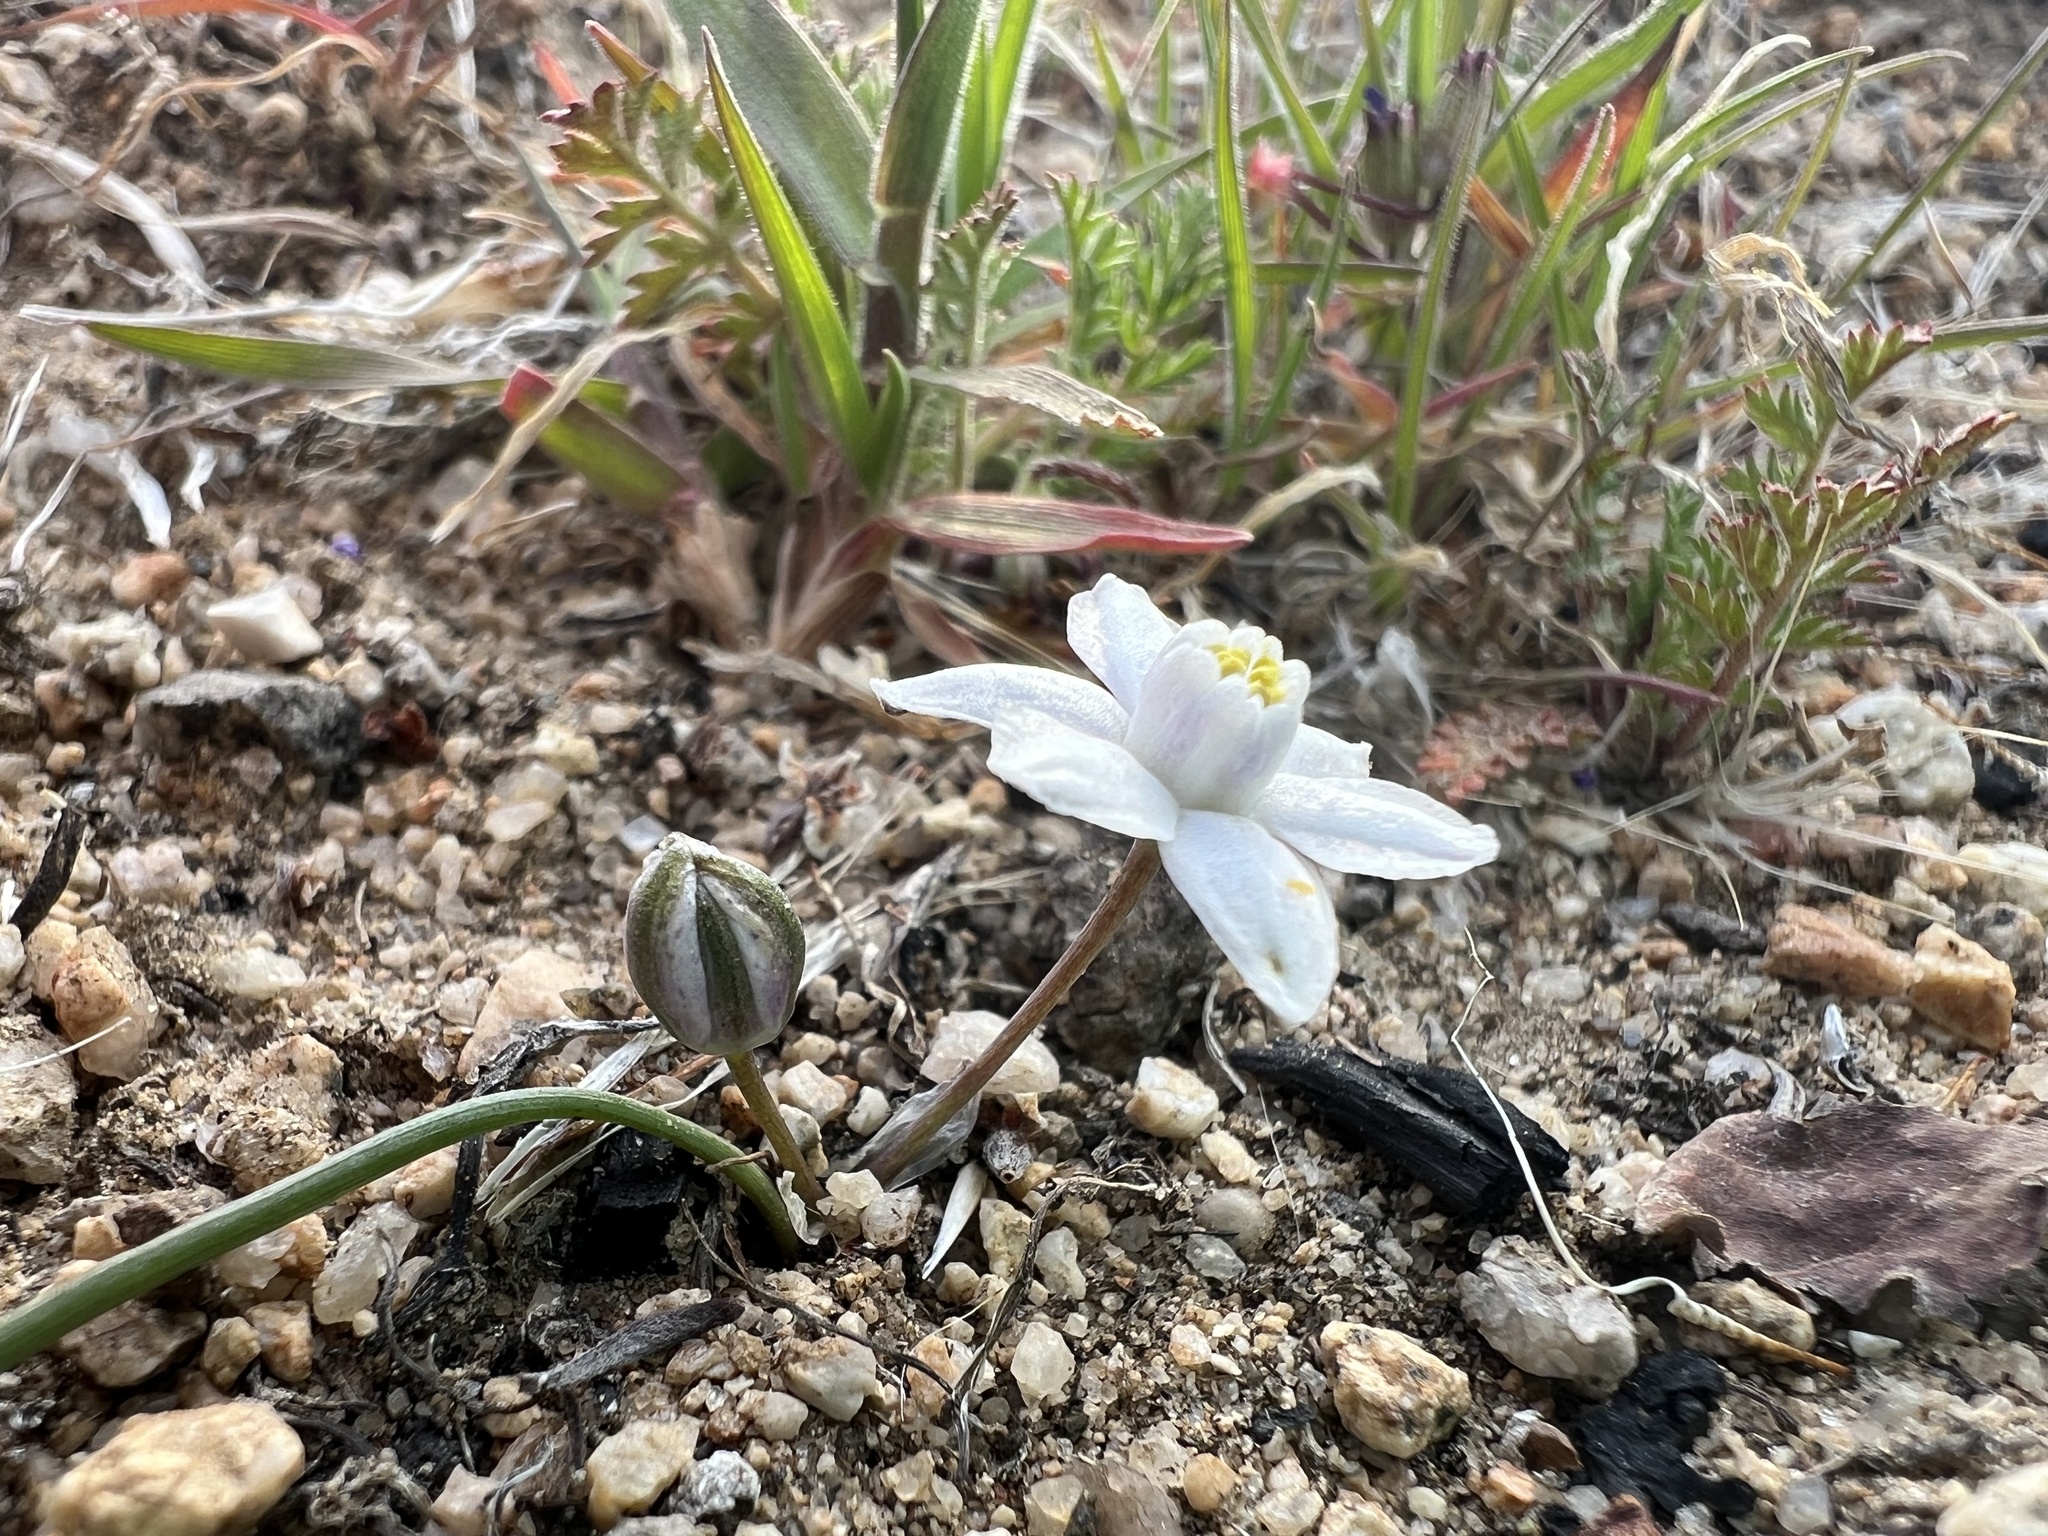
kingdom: Plantae
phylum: Tracheophyta
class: Liliopsida
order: Asparagales
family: Asparagaceae
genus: Muilla
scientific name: Muilla coronata
